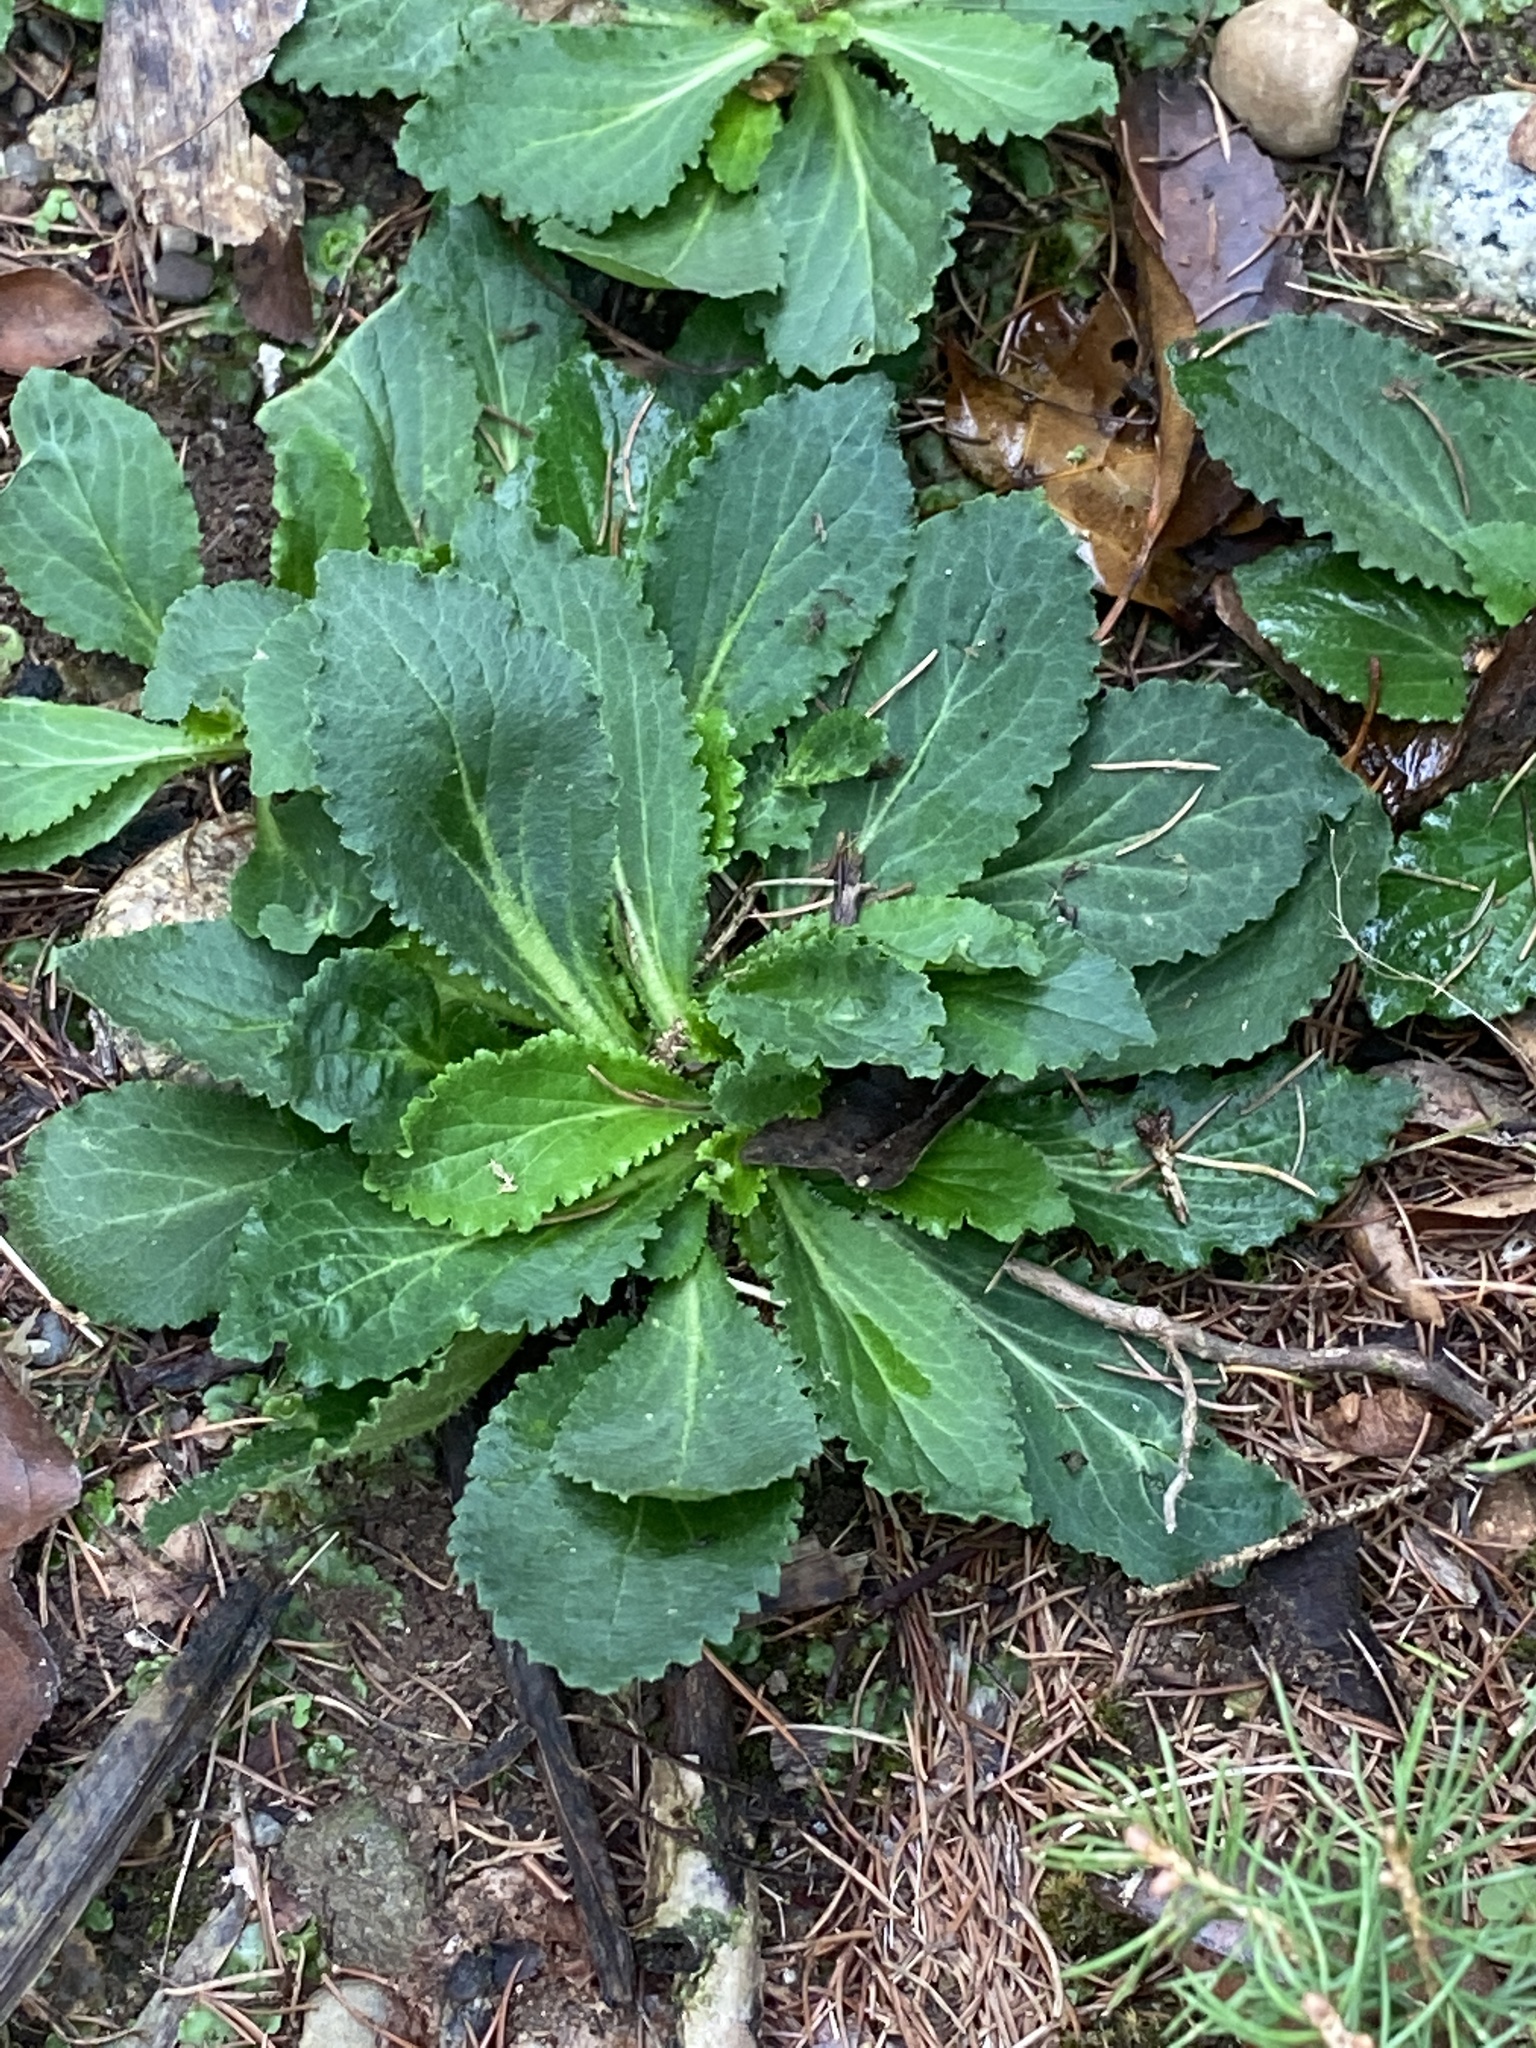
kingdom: Plantae
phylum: Tracheophyta
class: Magnoliopsida
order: Asterales
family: Campanulaceae
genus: Lobelia
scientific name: Lobelia inflata
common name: Indian tobacco
